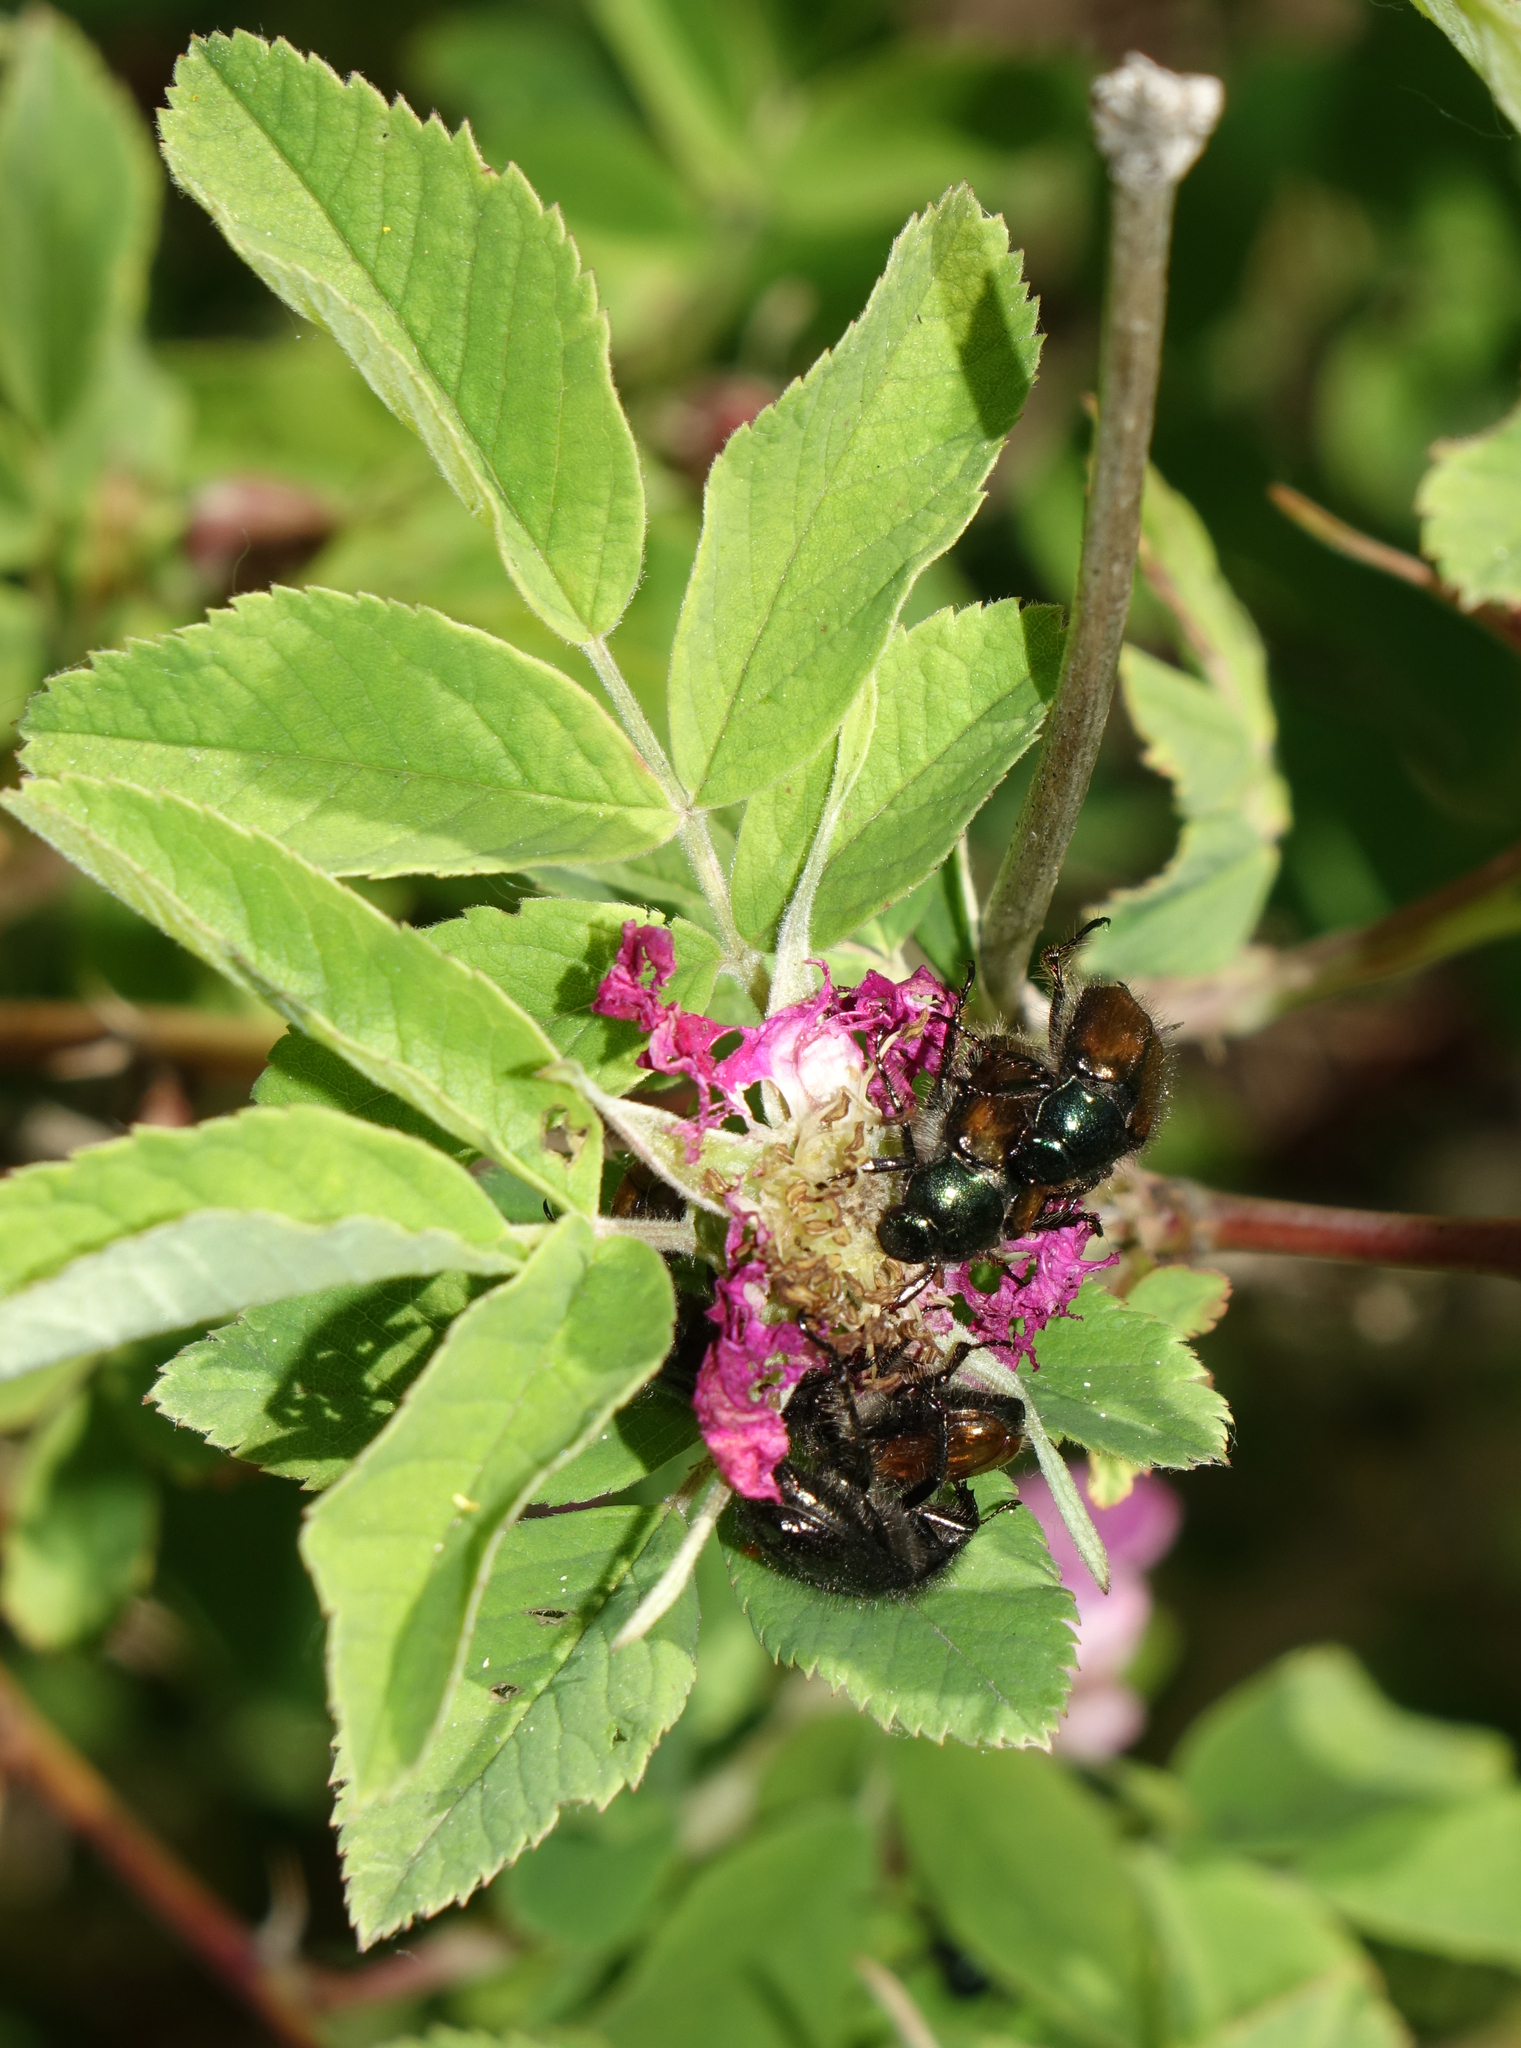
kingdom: Animalia
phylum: Arthropoda
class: Insecta
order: Coleoptera
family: Scarabaeidae
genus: Phyllopertha
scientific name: Phyllopertha horticola
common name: Garden chafer
